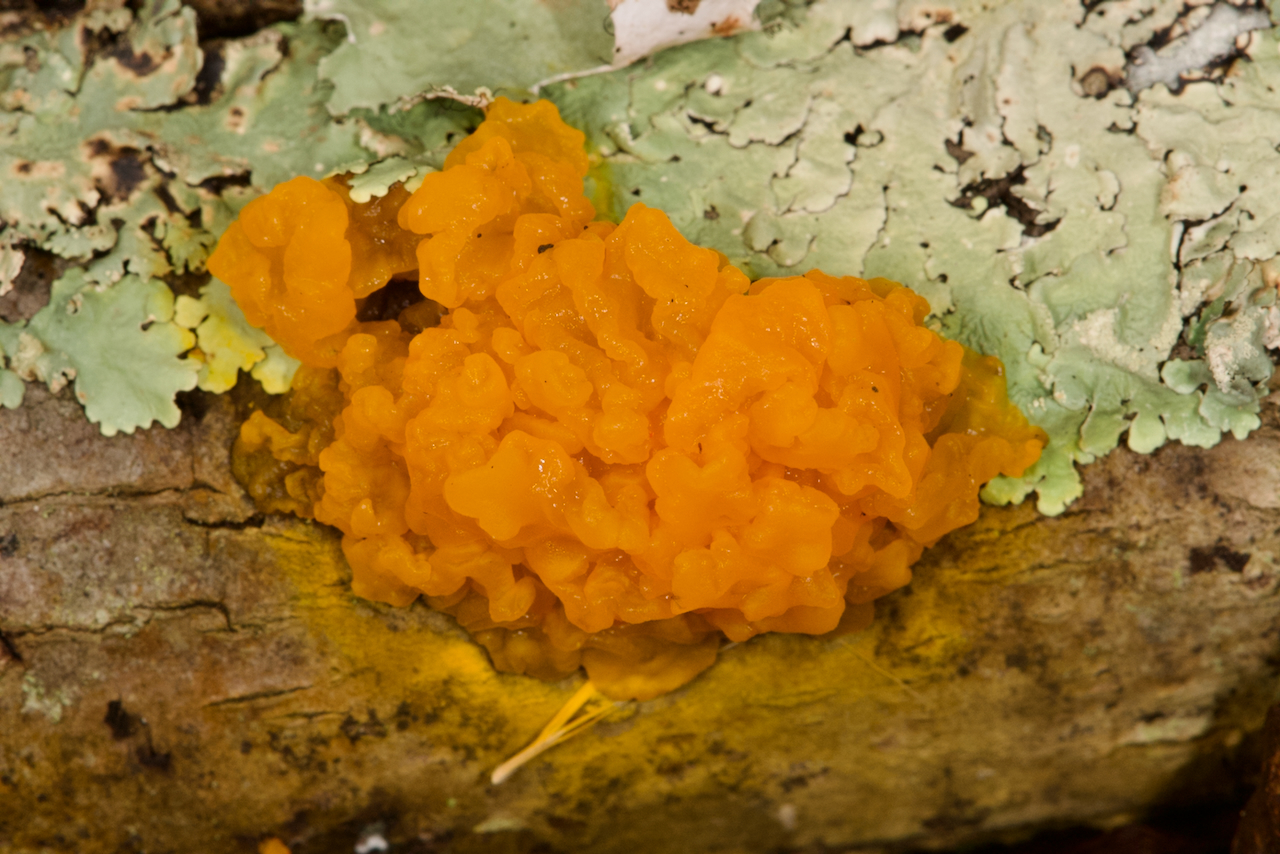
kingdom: Fungi
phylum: Basidiomycota
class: Dacrymycetes
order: Dacrymycetales
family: Dacrymycetaceae
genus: Dacrymyces
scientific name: Dacrymyces chrysospermus
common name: Orange jelly spot
